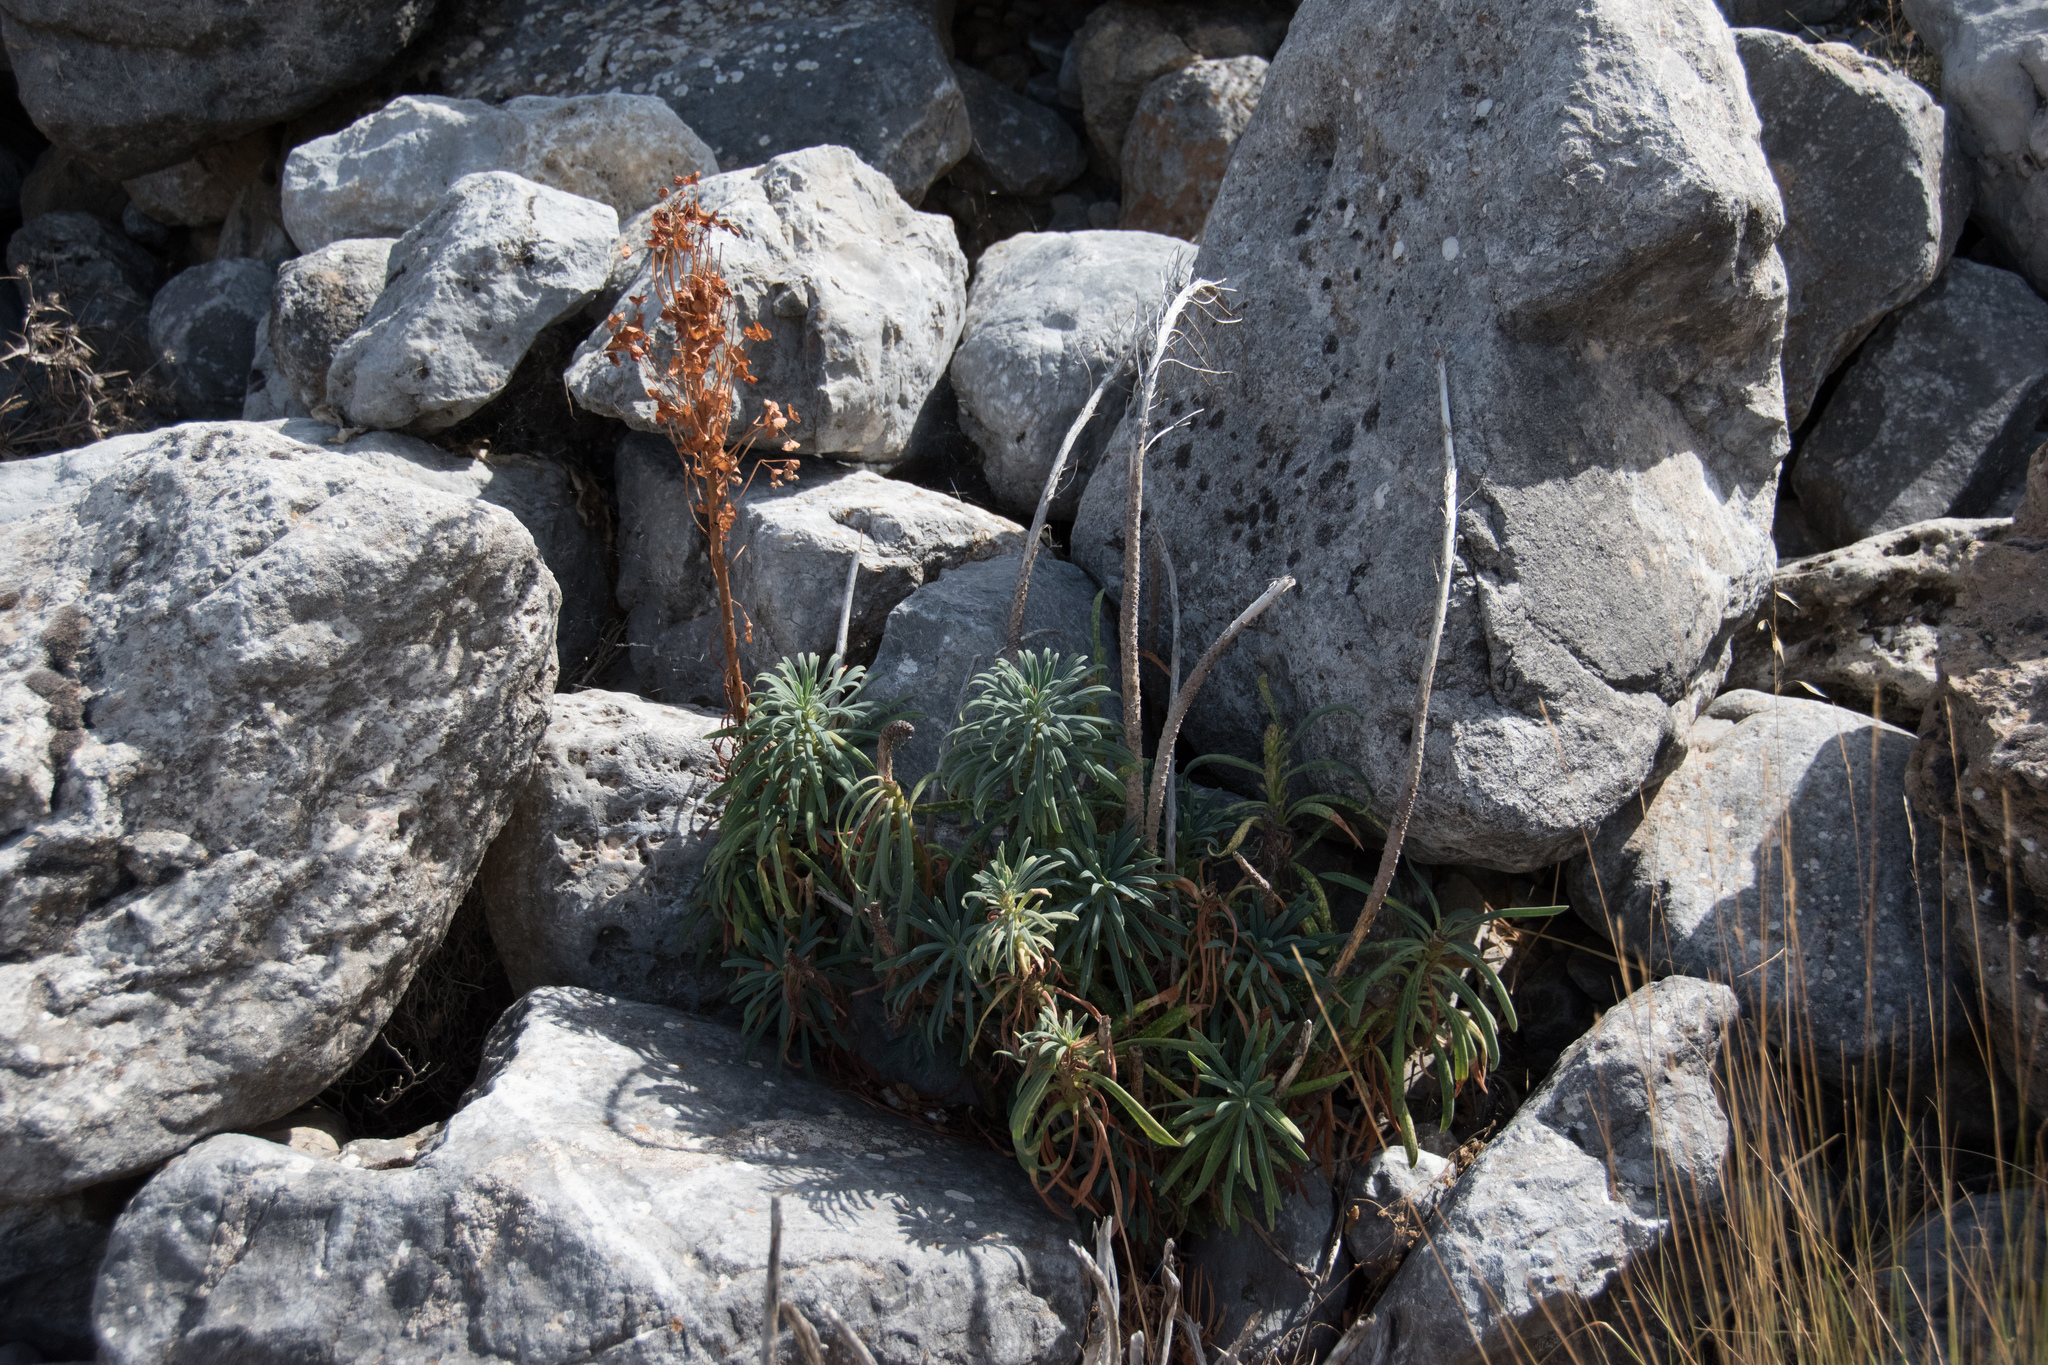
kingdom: Plantae
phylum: Tracheophyta
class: Magnoliopsida
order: Malpighiales
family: Euphorbiaceae
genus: Euphorbia
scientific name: Euphorbia characias
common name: Mediterranean spurge
